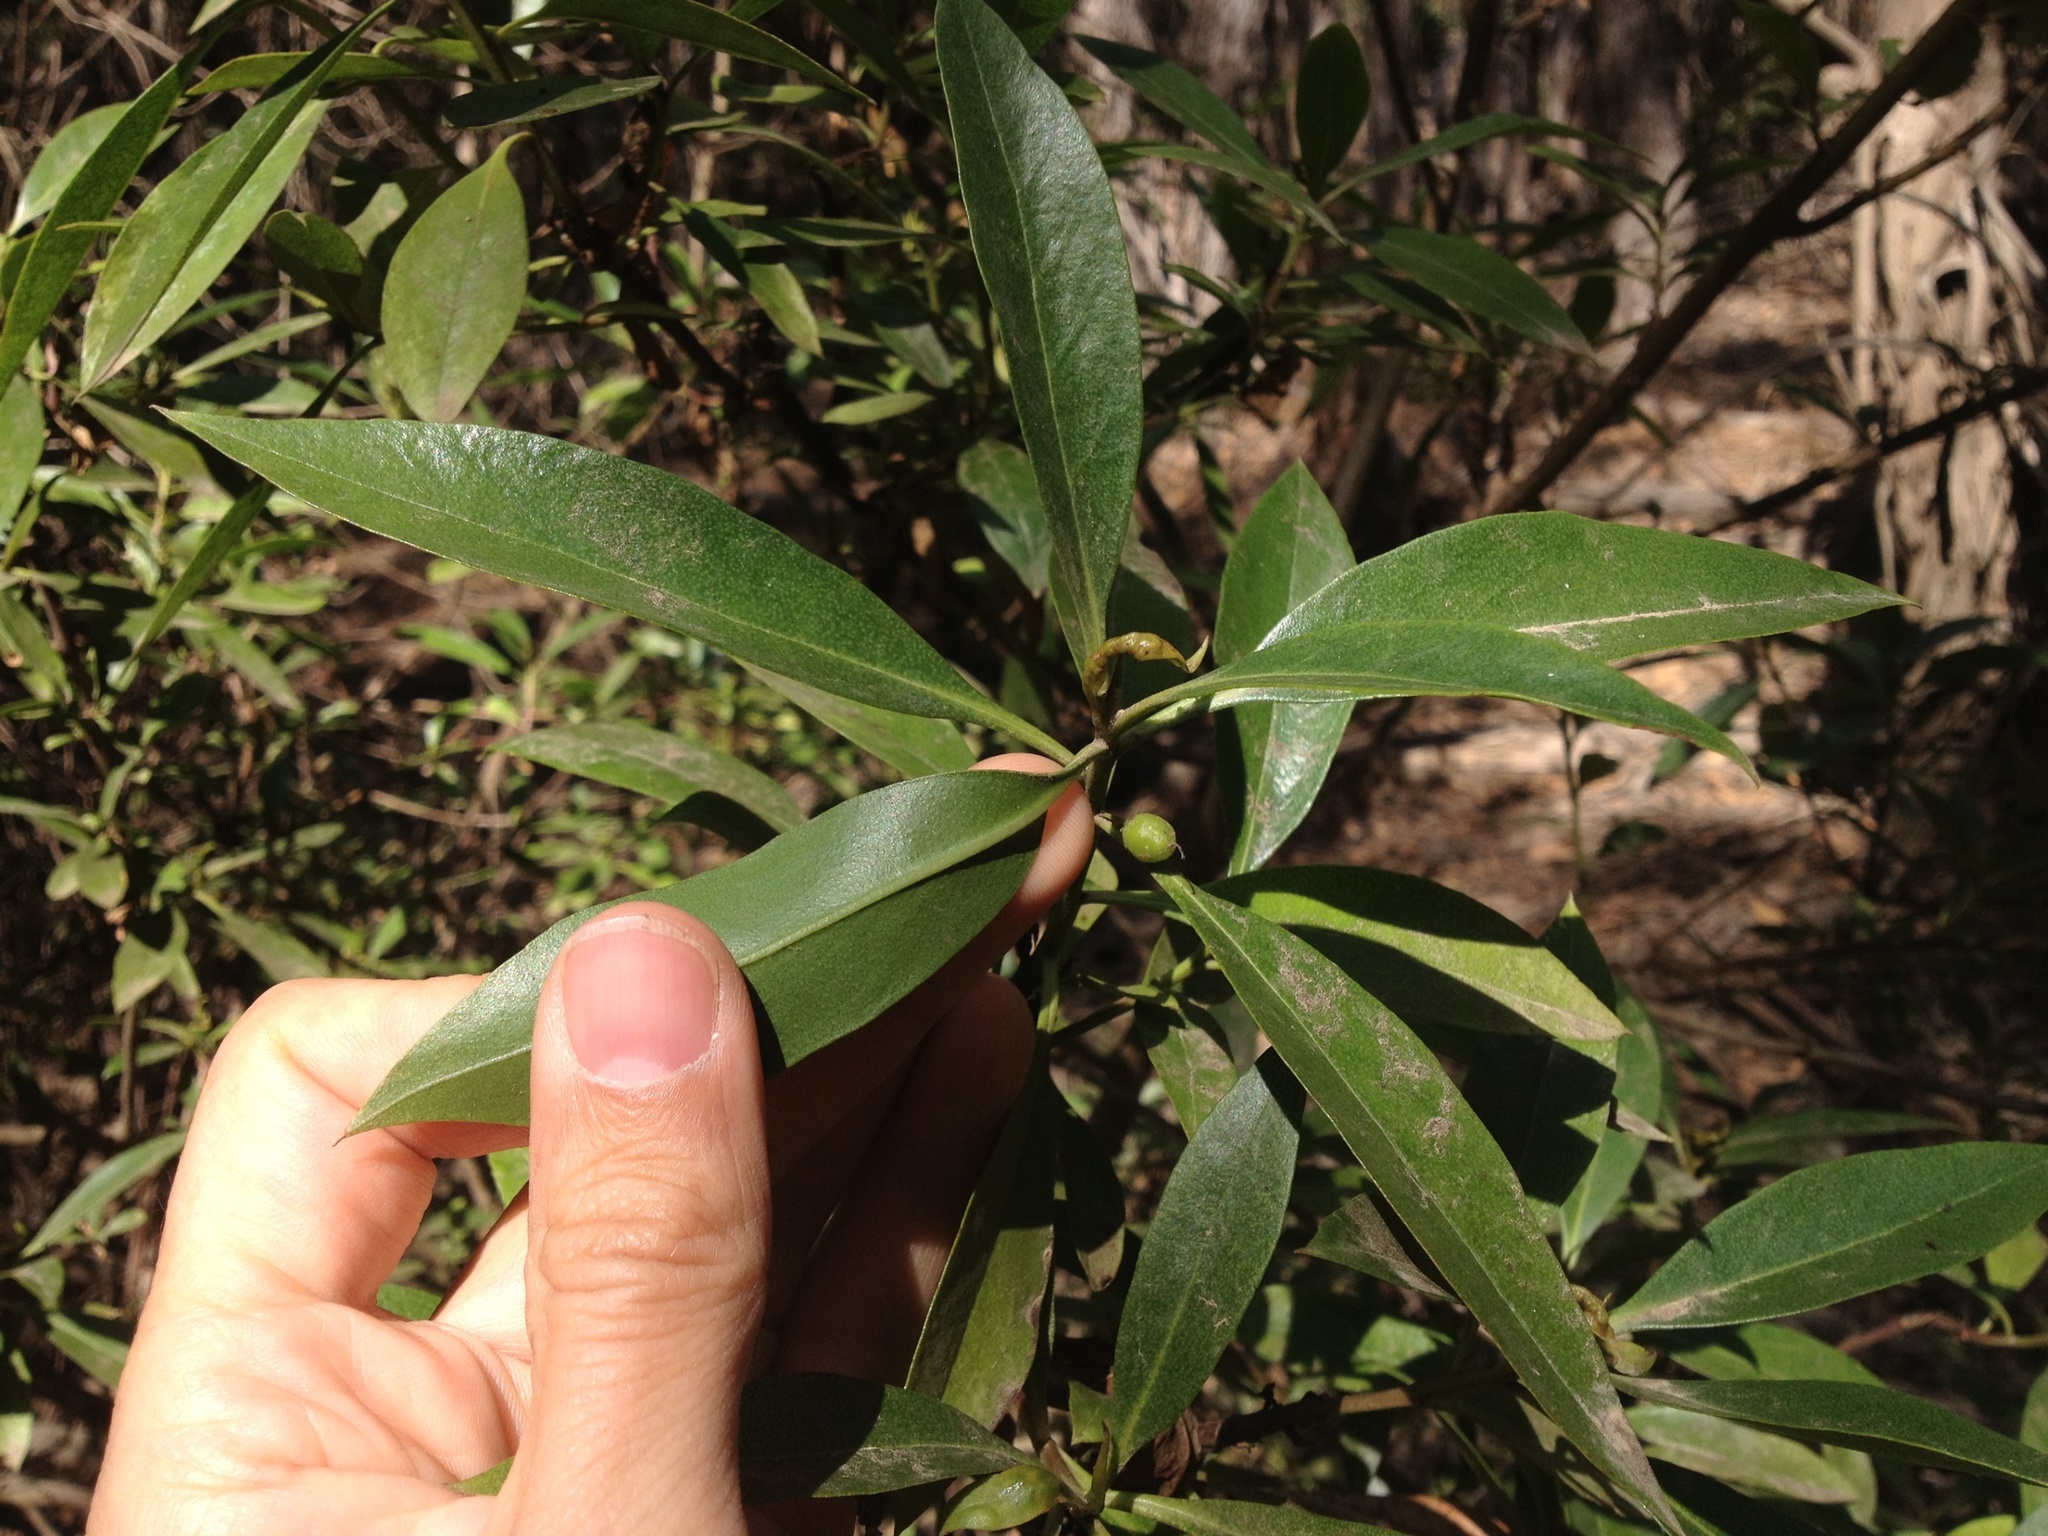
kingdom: Animalia
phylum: Arthropoda
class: Insecta
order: Thysanoptera
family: Phlaeothripidae
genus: Klambothrips
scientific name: Klambothrips myopori
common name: Myoporum thrips
